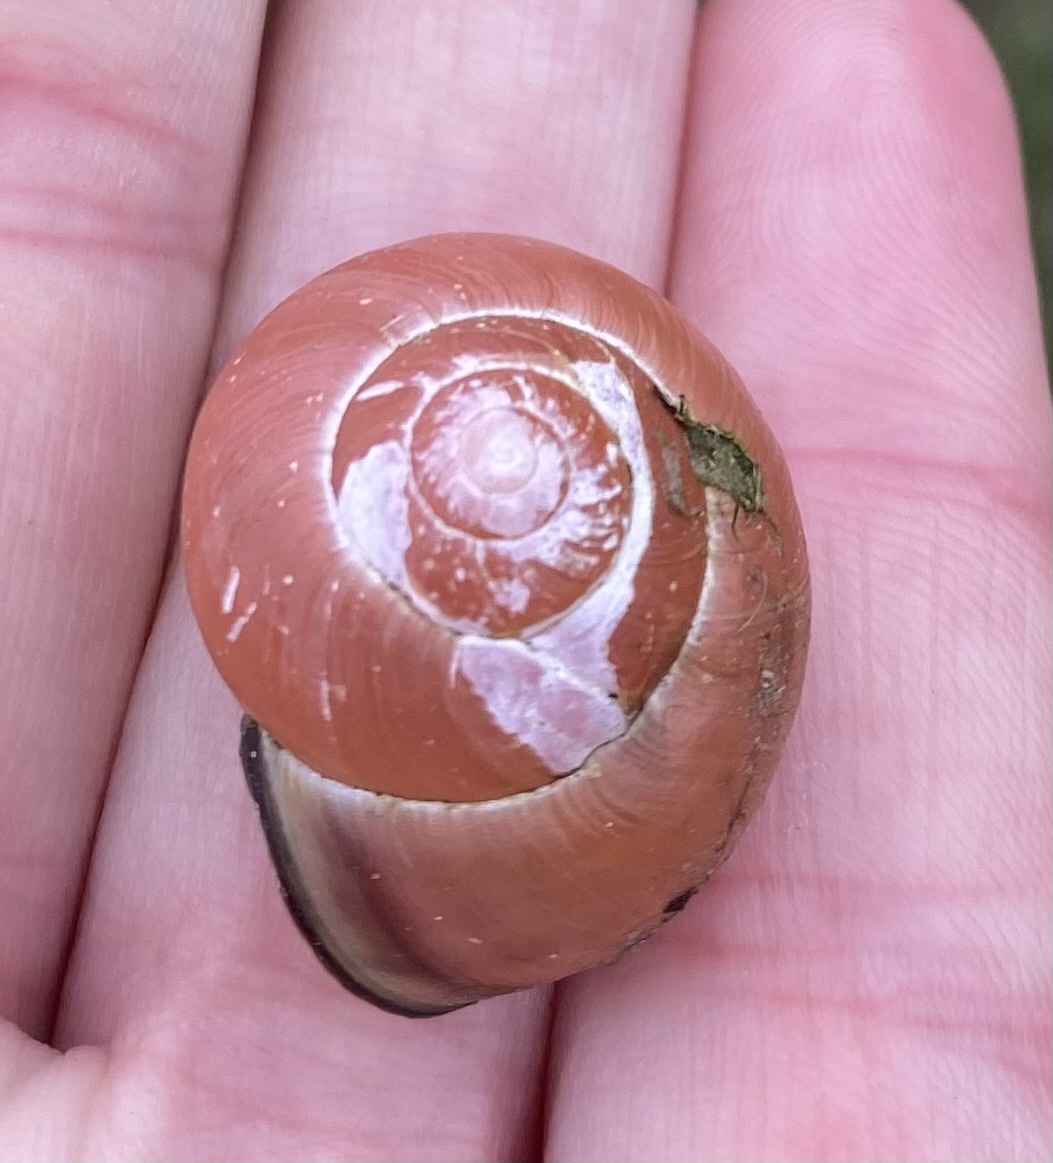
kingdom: Animalia
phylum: Mollusca
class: Gastropoda
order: Stylommatophora
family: Helicidae
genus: Cepaea
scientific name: Cepaea nemoralis
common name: Grovesnail
